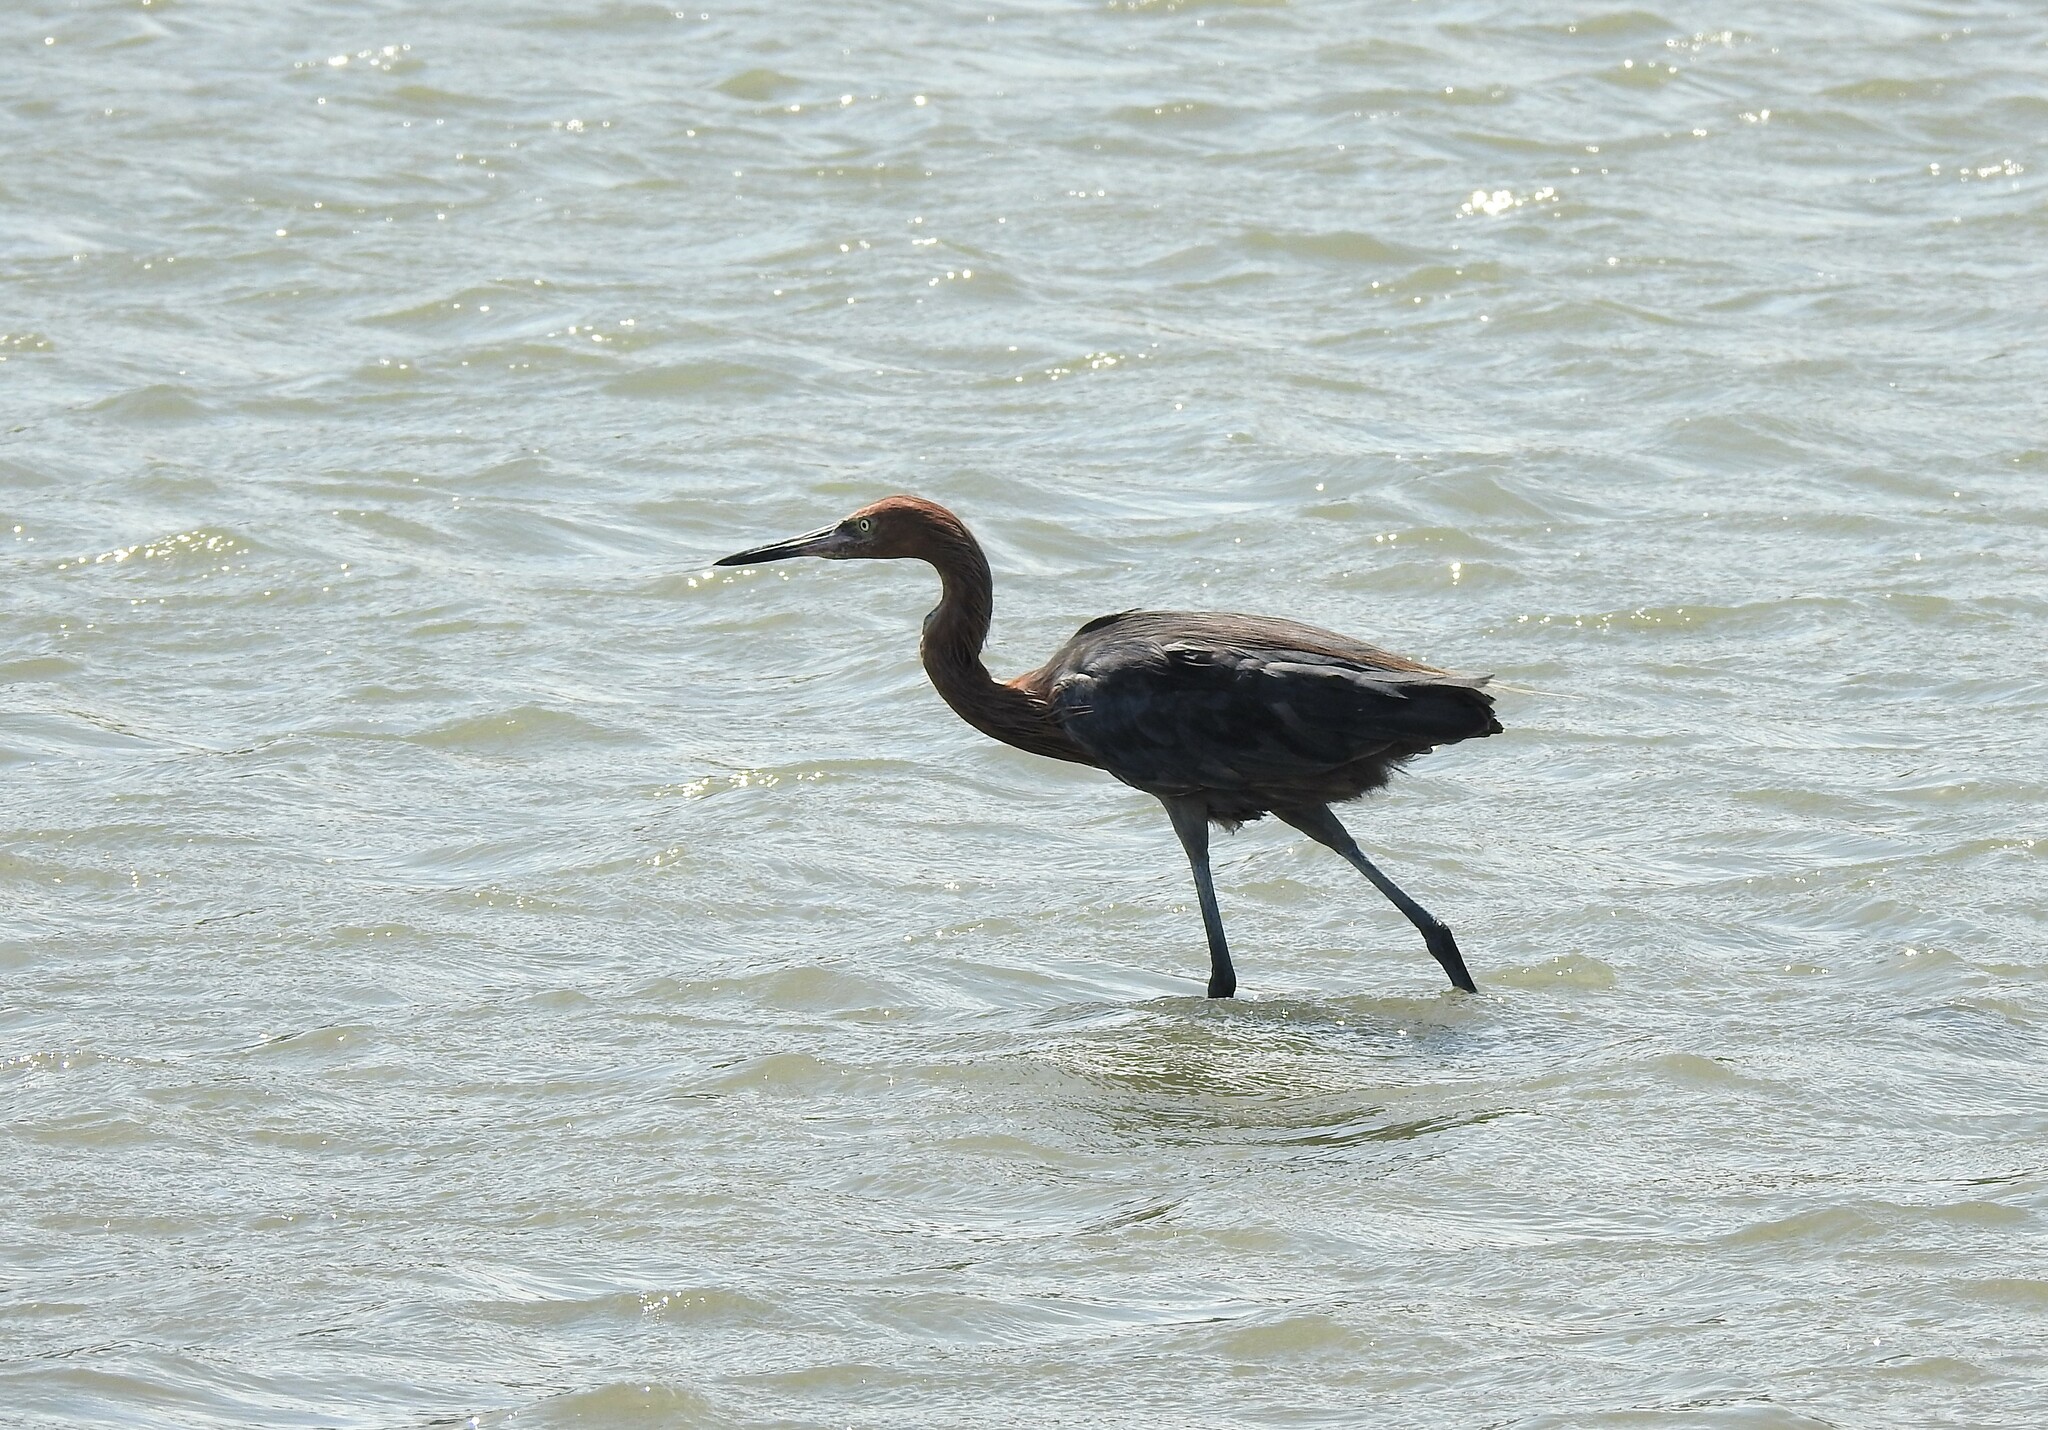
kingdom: Animalia
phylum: Chordata
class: Aves
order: Pelecaniformes
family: Ardeidae
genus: Egretta
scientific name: Egretta rufescens
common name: Reddish egret
